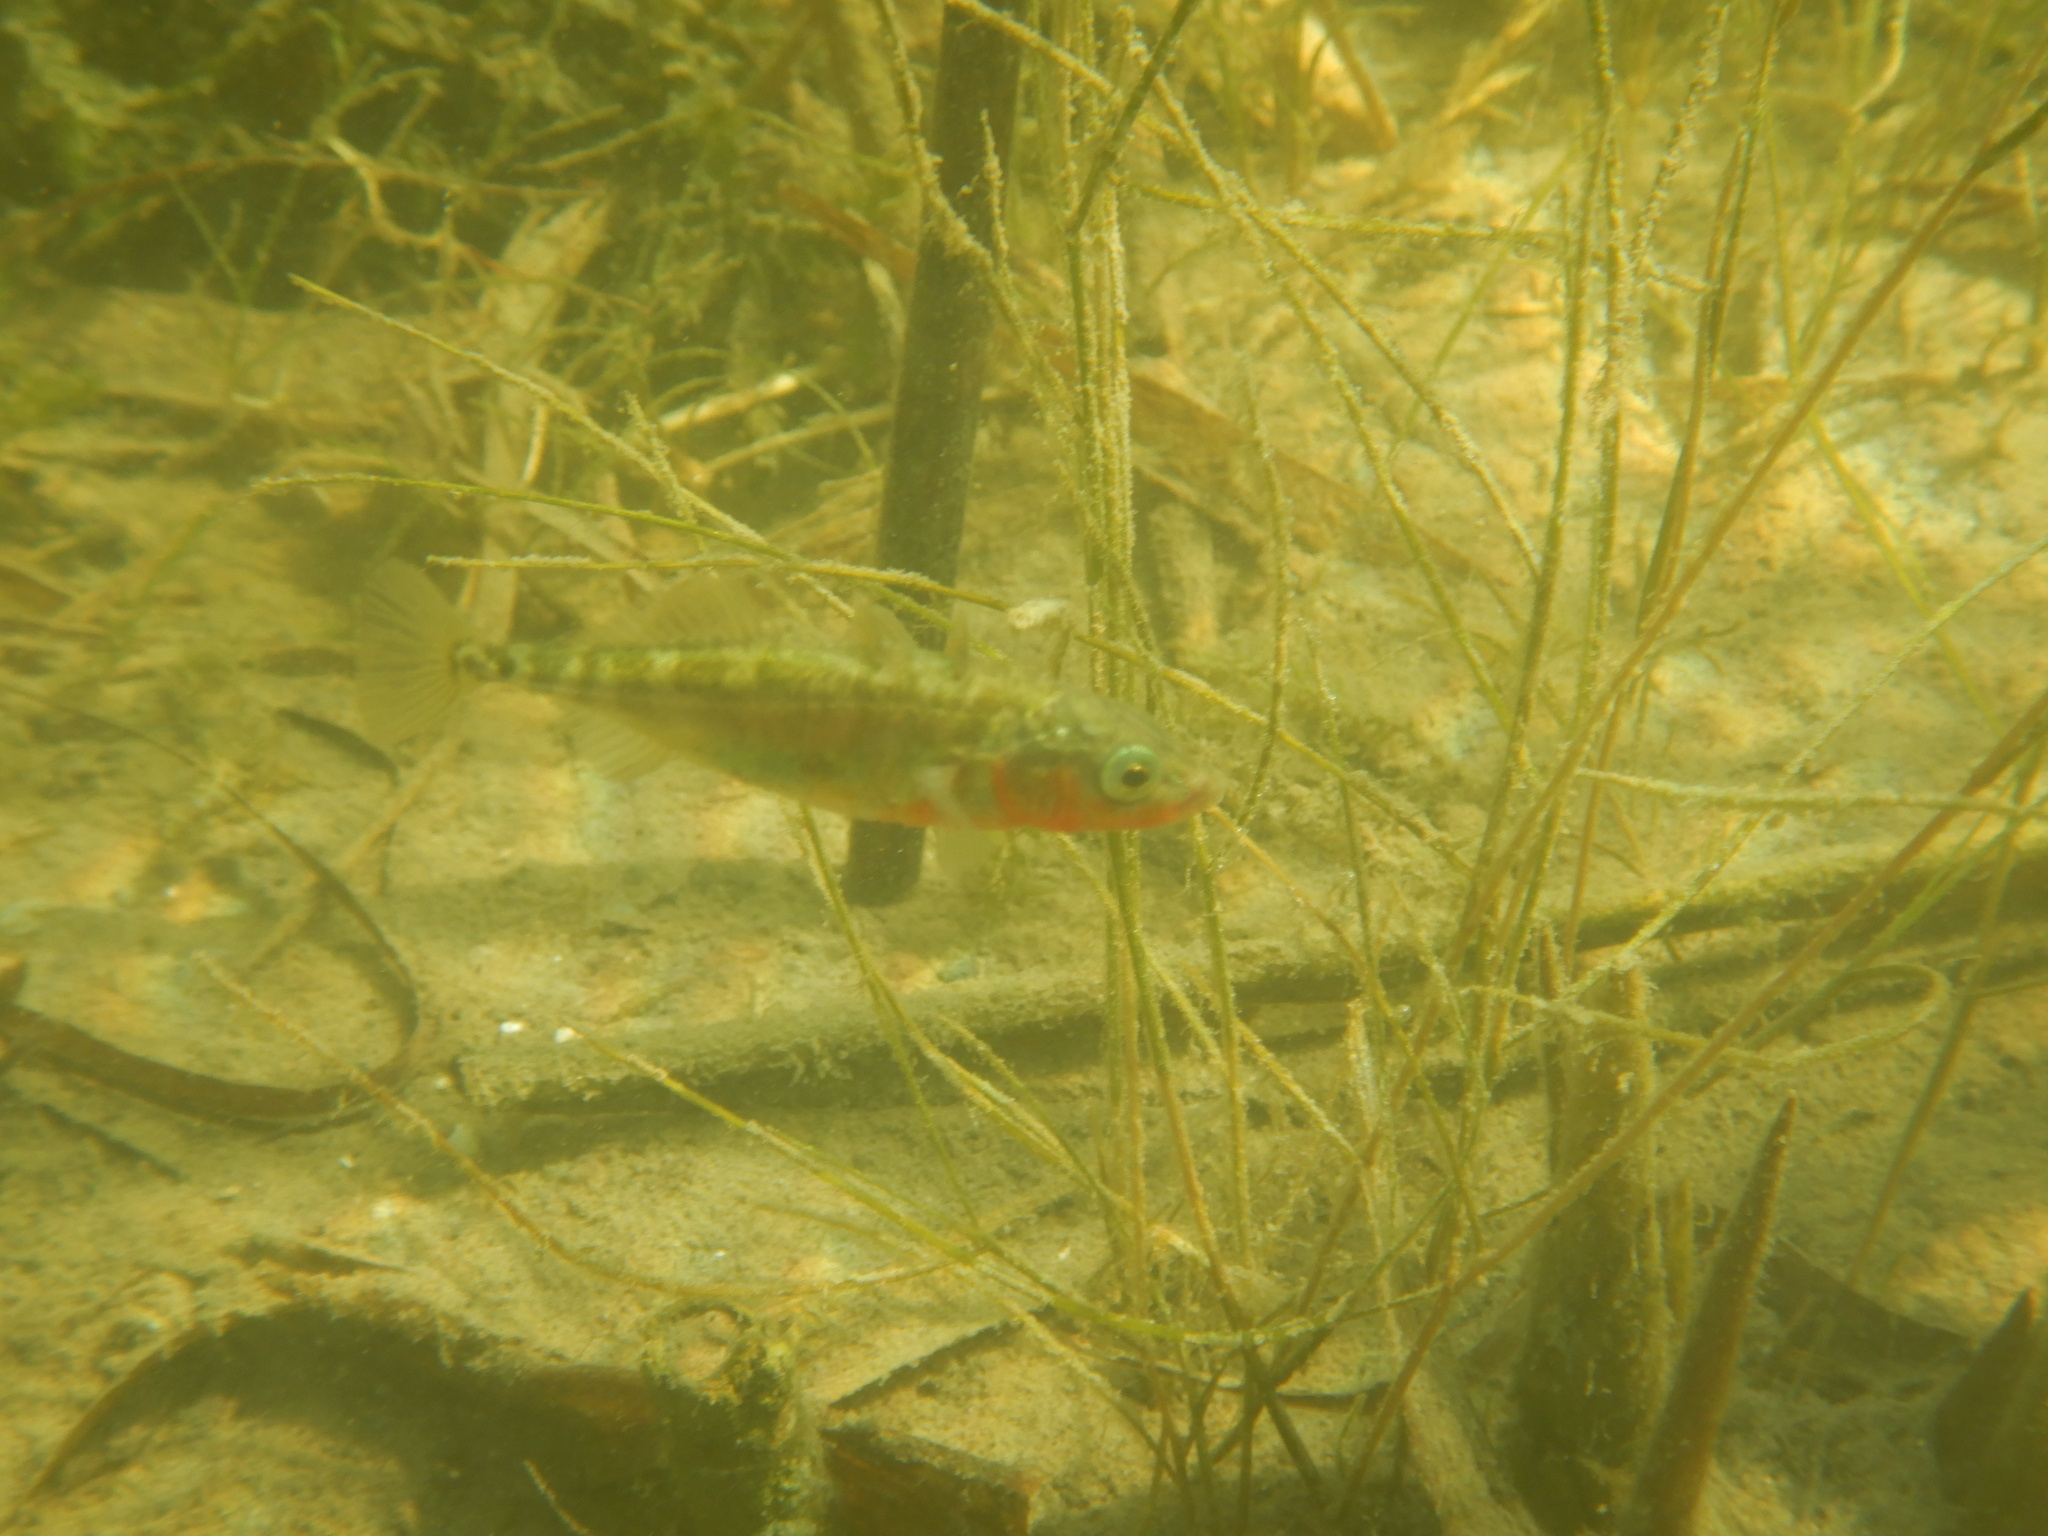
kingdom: Animalia
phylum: Chordata
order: Gasterosteiformes
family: Gasterosteidae
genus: Gasterosteus
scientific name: Gasterosteus aculeatus
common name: Three-spined stickleback
